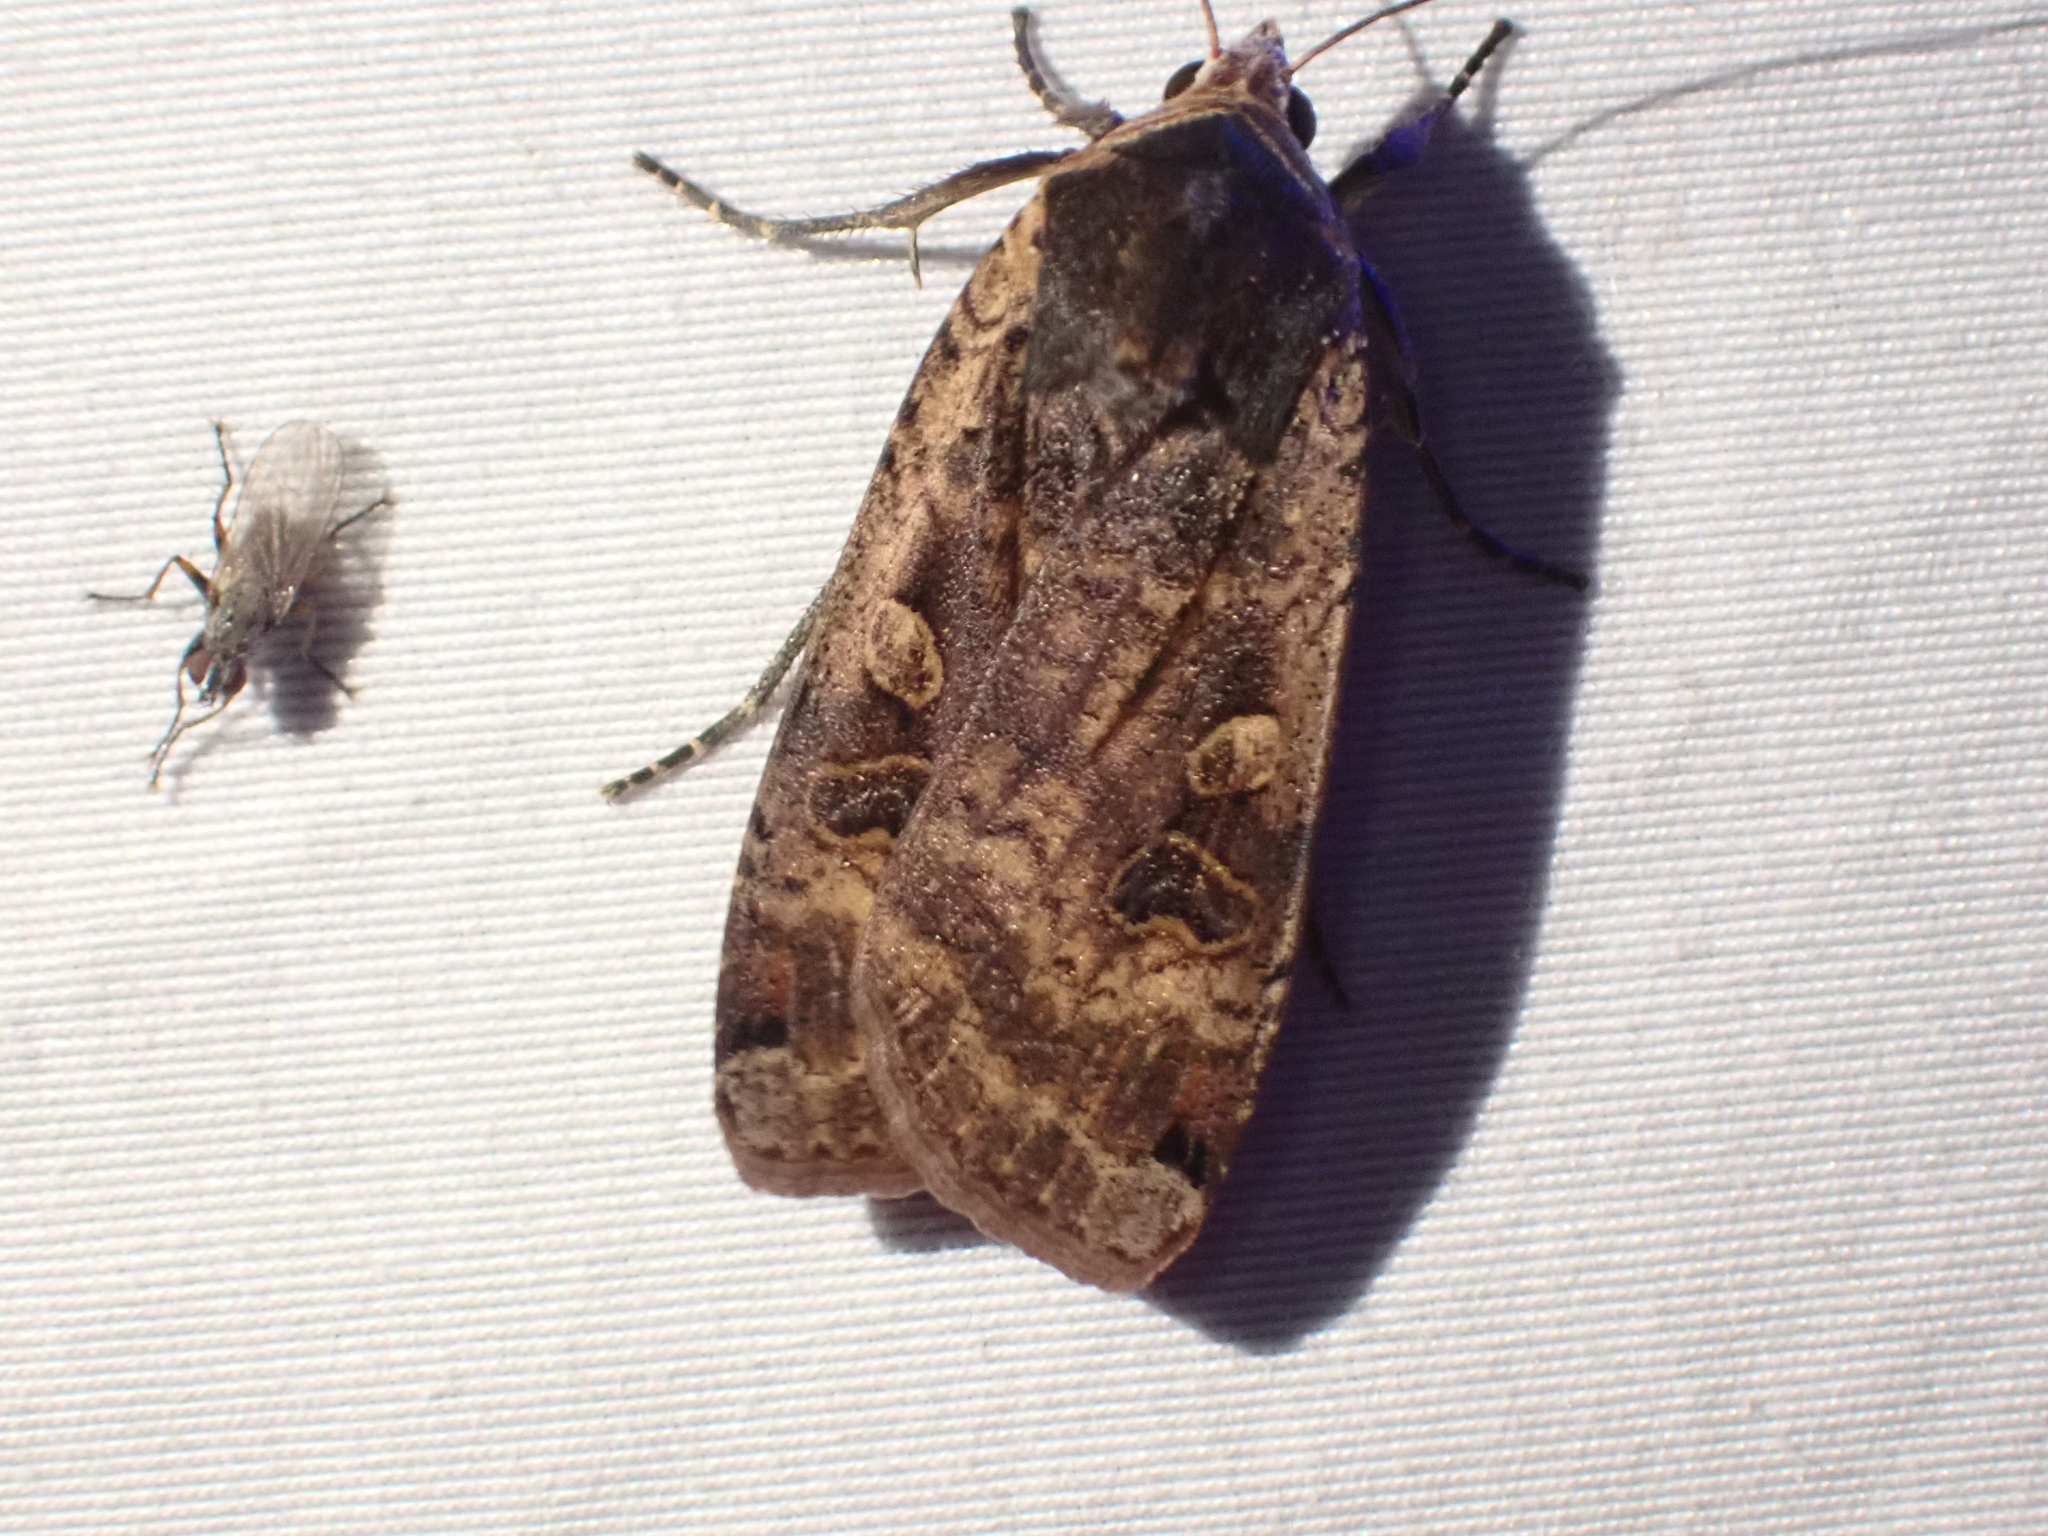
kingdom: Animalia
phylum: Arthropoda
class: Insecta
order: Lepidoptera
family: Noctuidae
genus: Noctua
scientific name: Noctua pronuba
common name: Large yellow underwing
